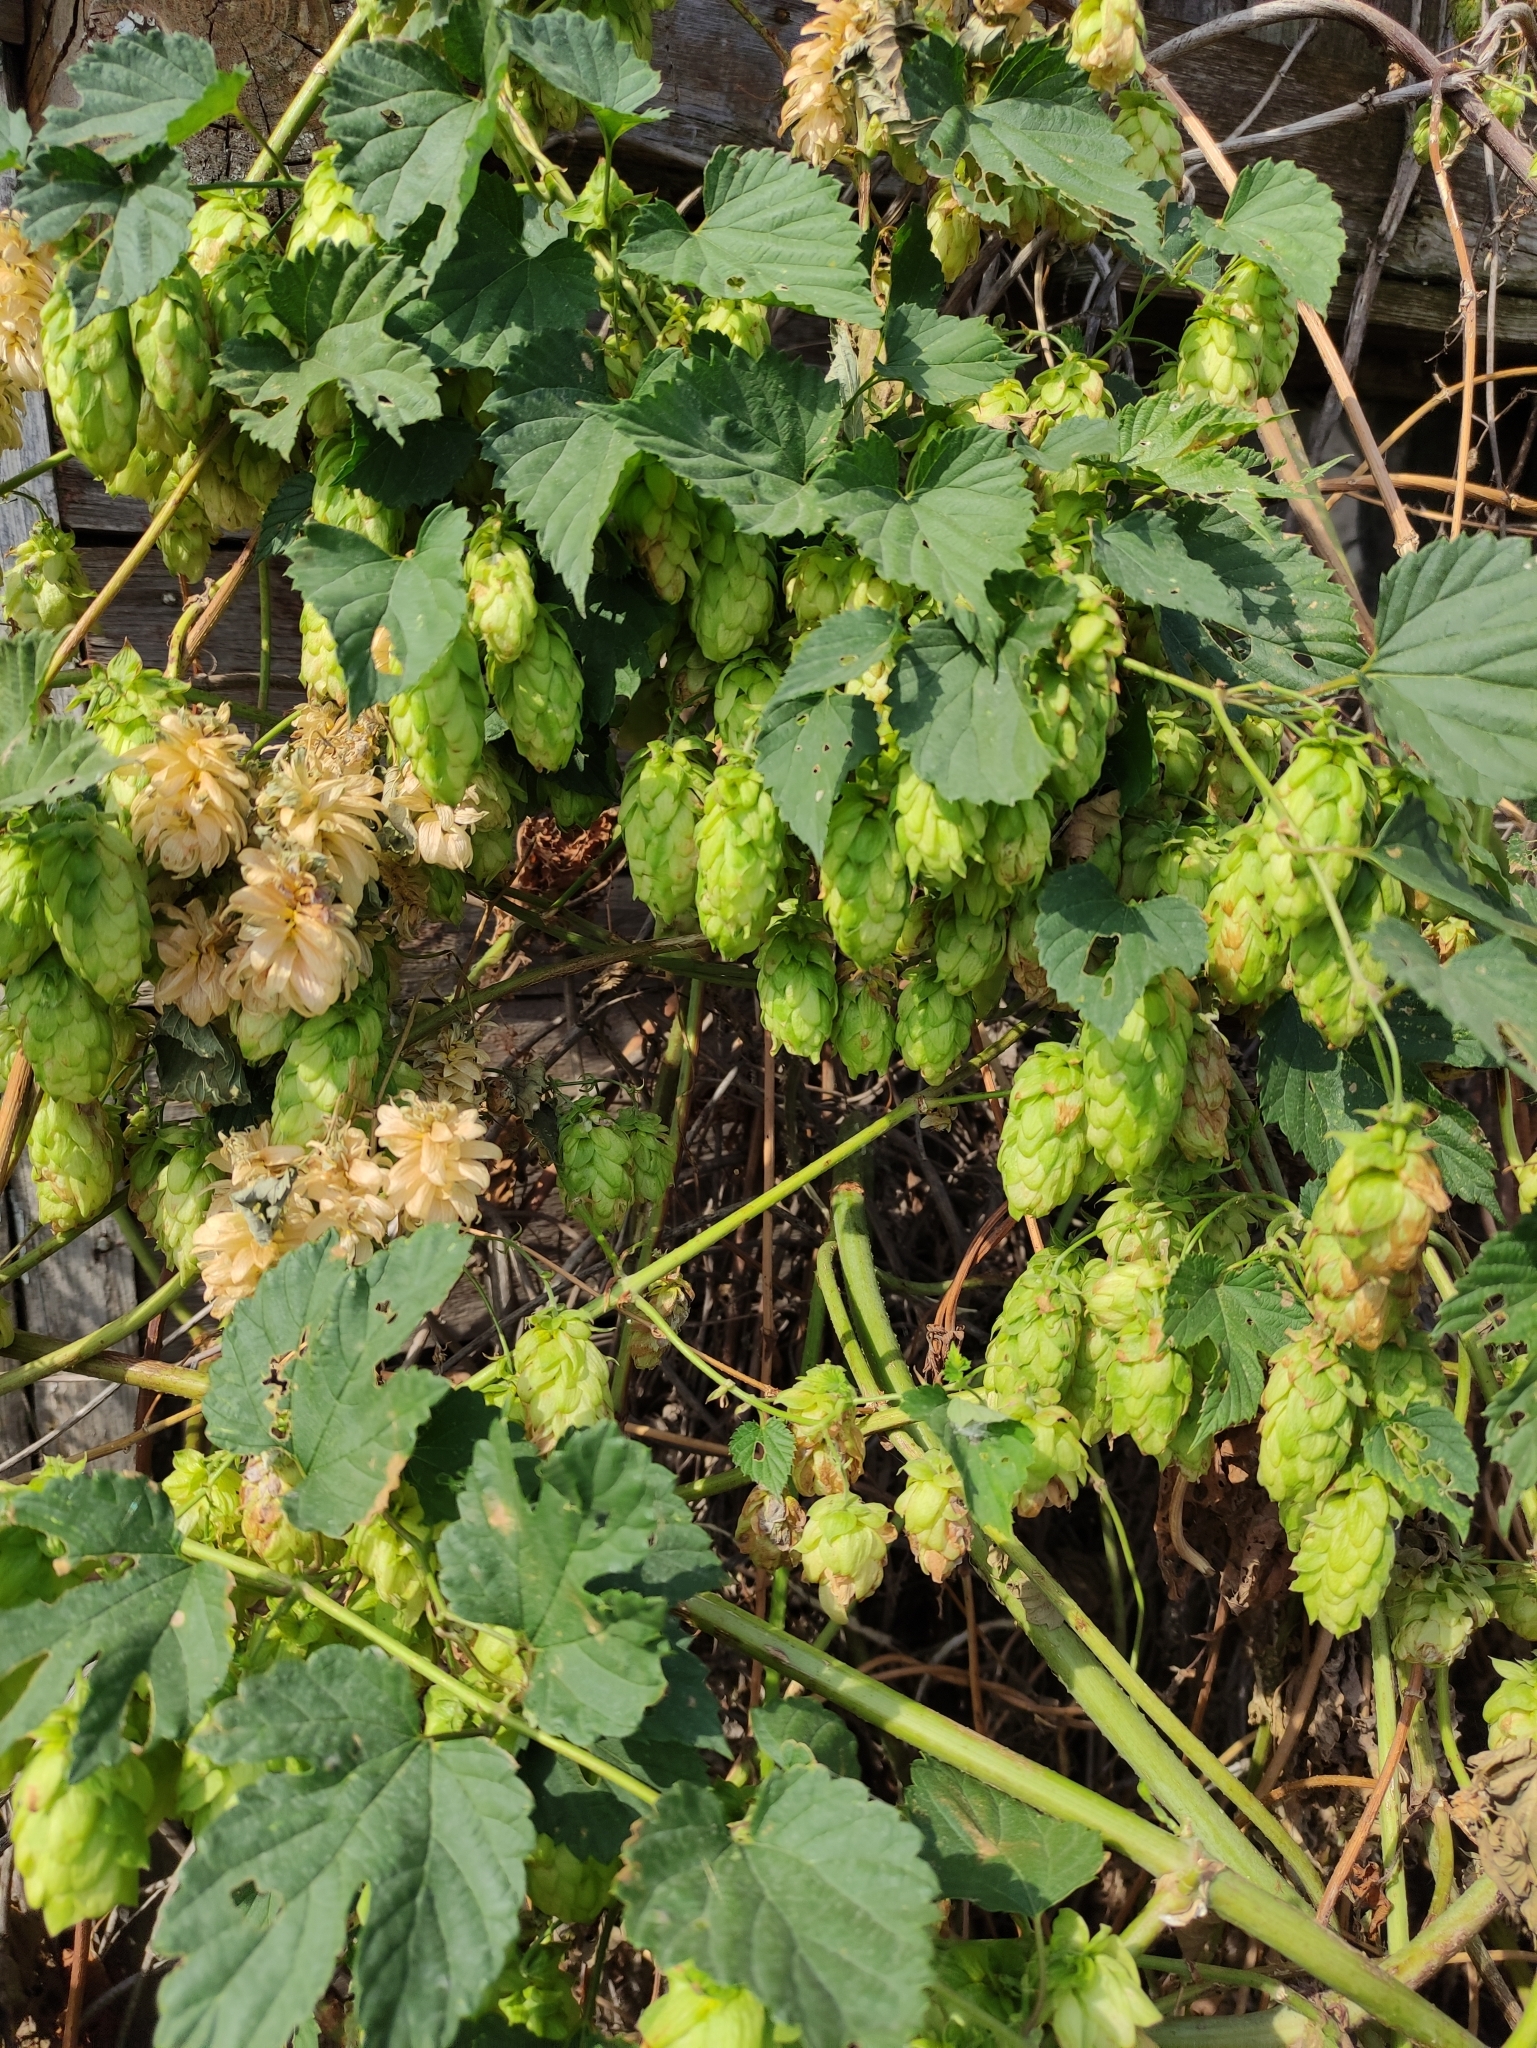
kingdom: Plantae
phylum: Tracheophyta
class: Magnoliopsida
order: Rosales
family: Cannabaceae
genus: Humulus
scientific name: Humulus lupulus
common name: Hop
